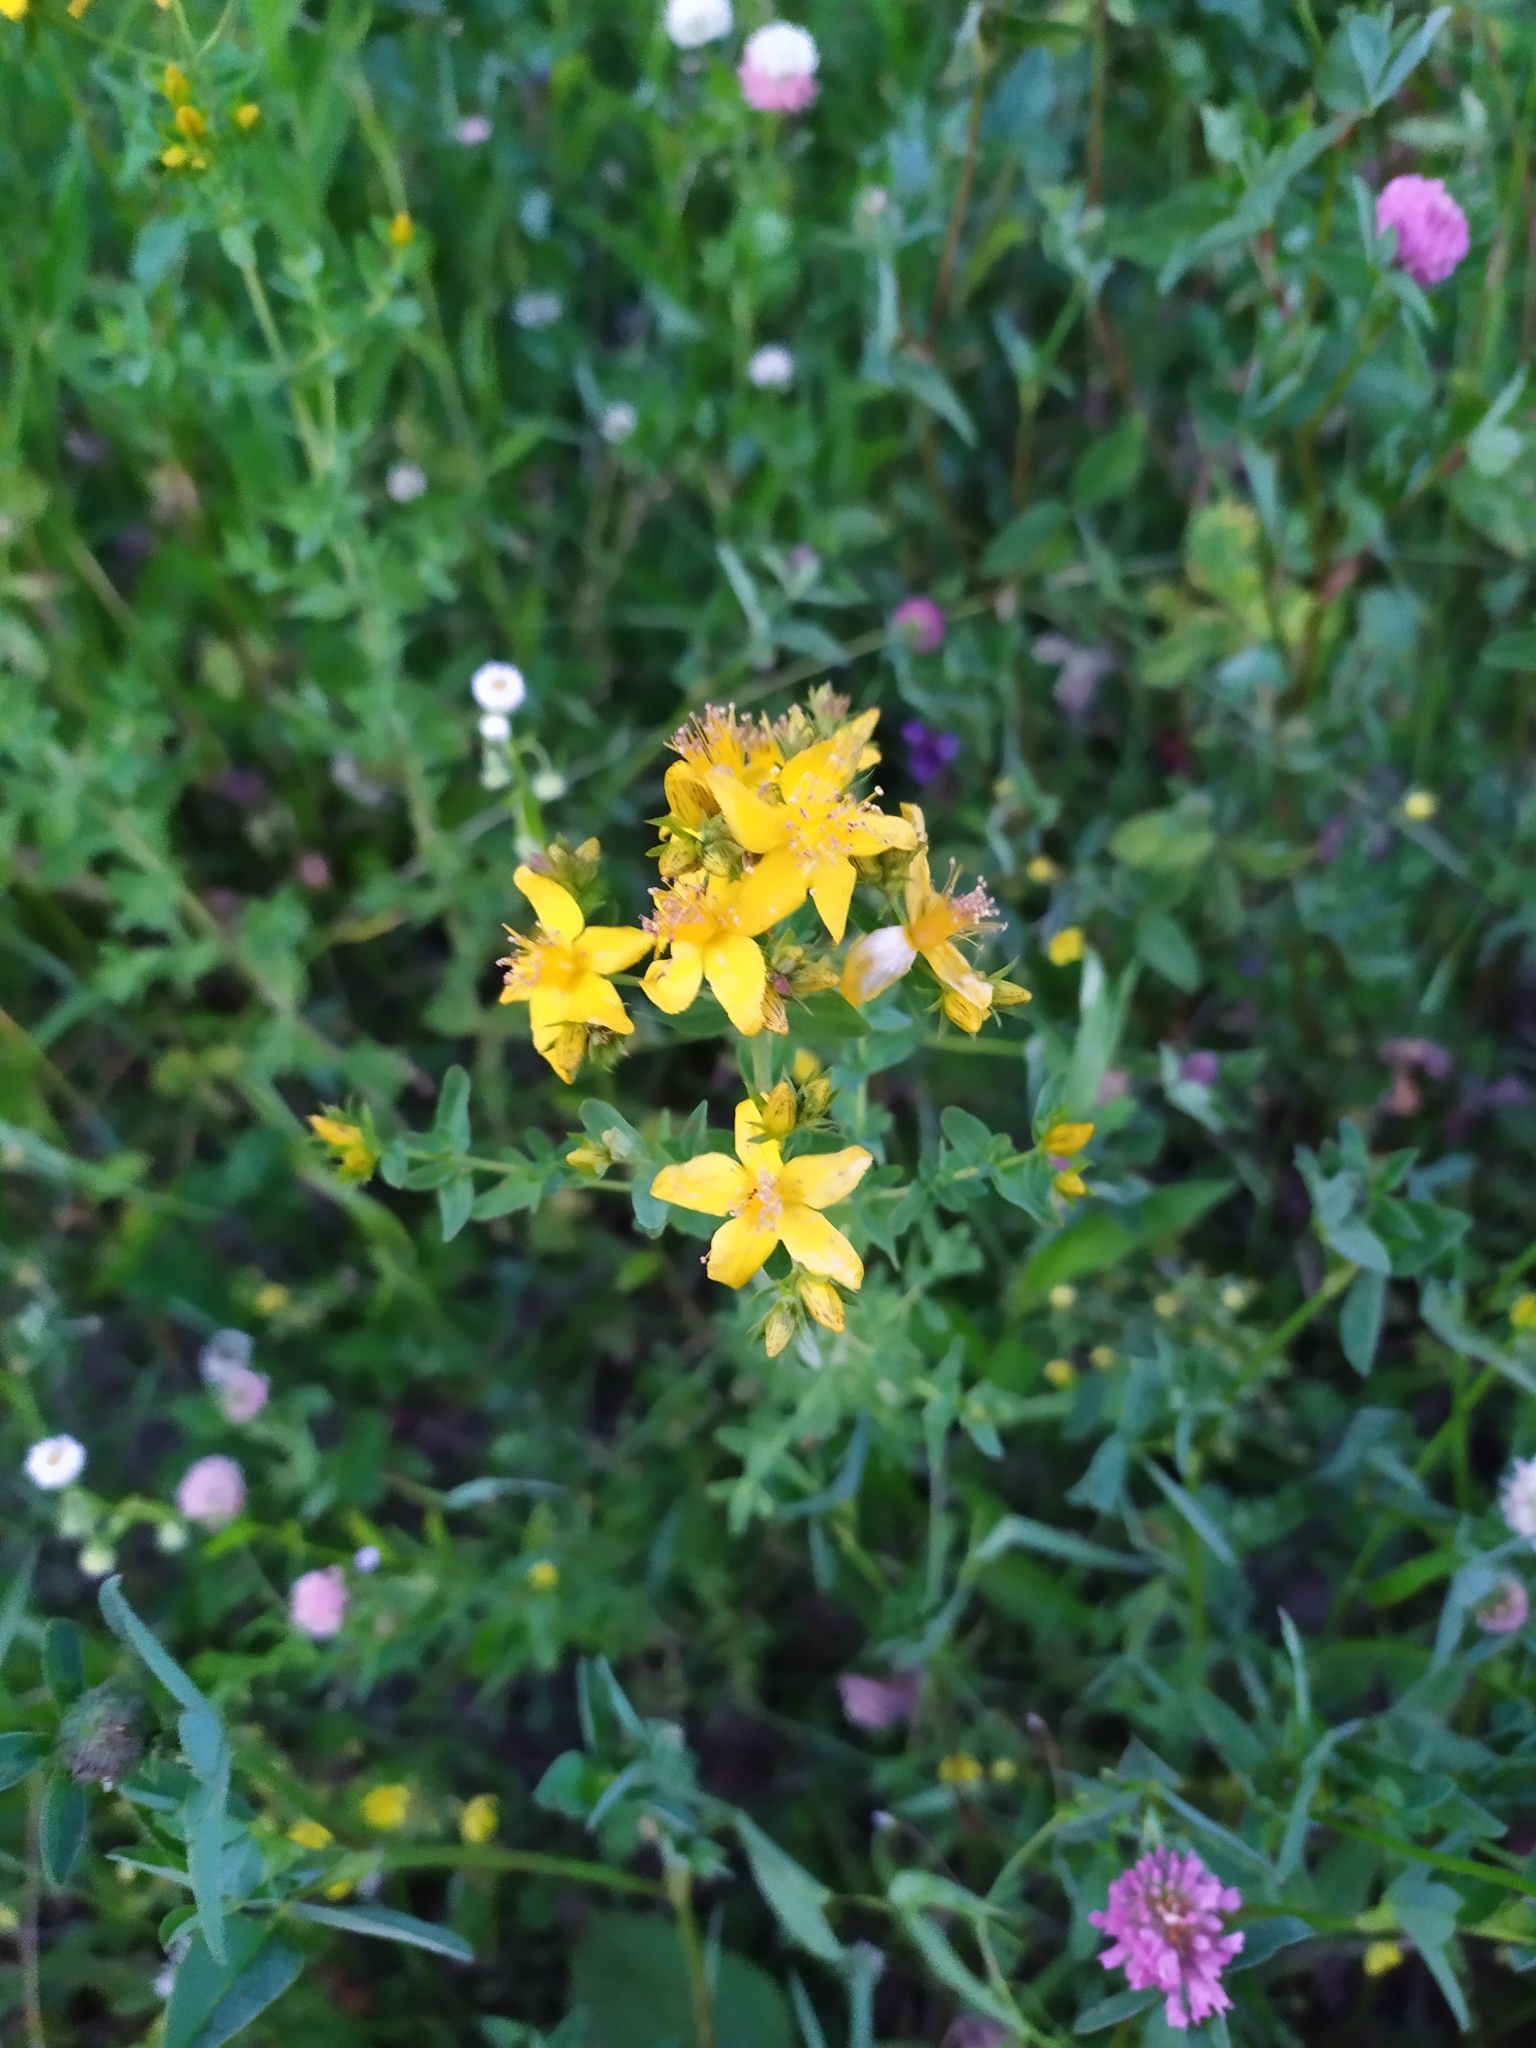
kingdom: Plantae
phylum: Tracheophyta
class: Magnoliopsida
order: Malpighiales
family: Hypericaceae
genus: Hypericum
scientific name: Hypericum perforatum
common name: Common st. johnswort
